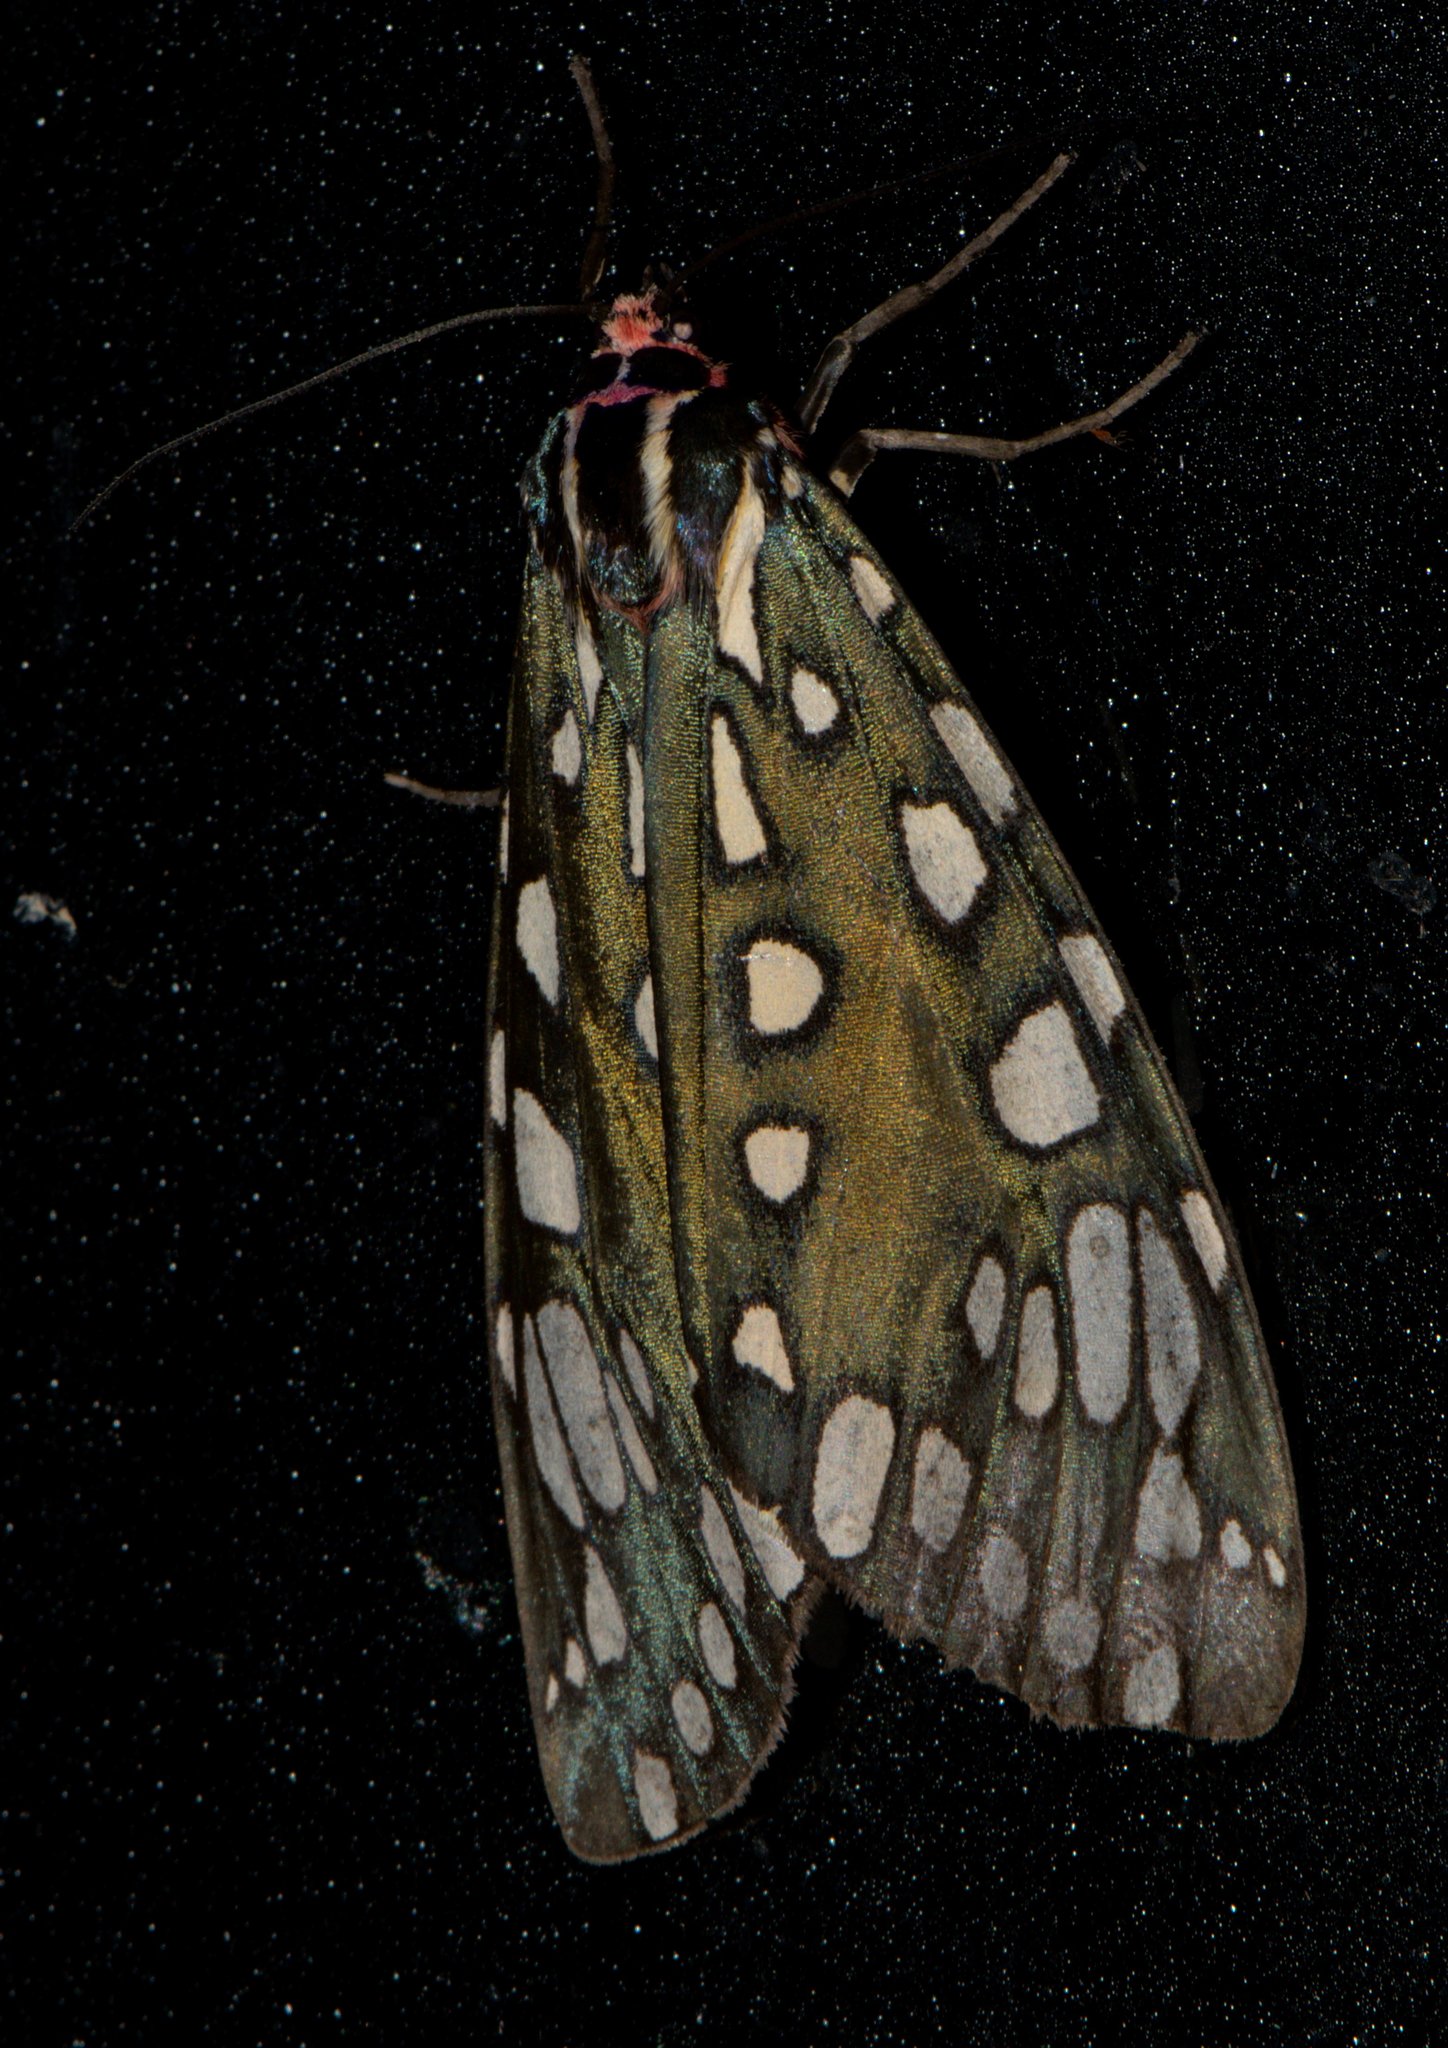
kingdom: Animalia
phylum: Arthropoda
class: Insecta
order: Lepidoptera
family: Erebidae
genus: Callindra
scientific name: Callindra principalis
